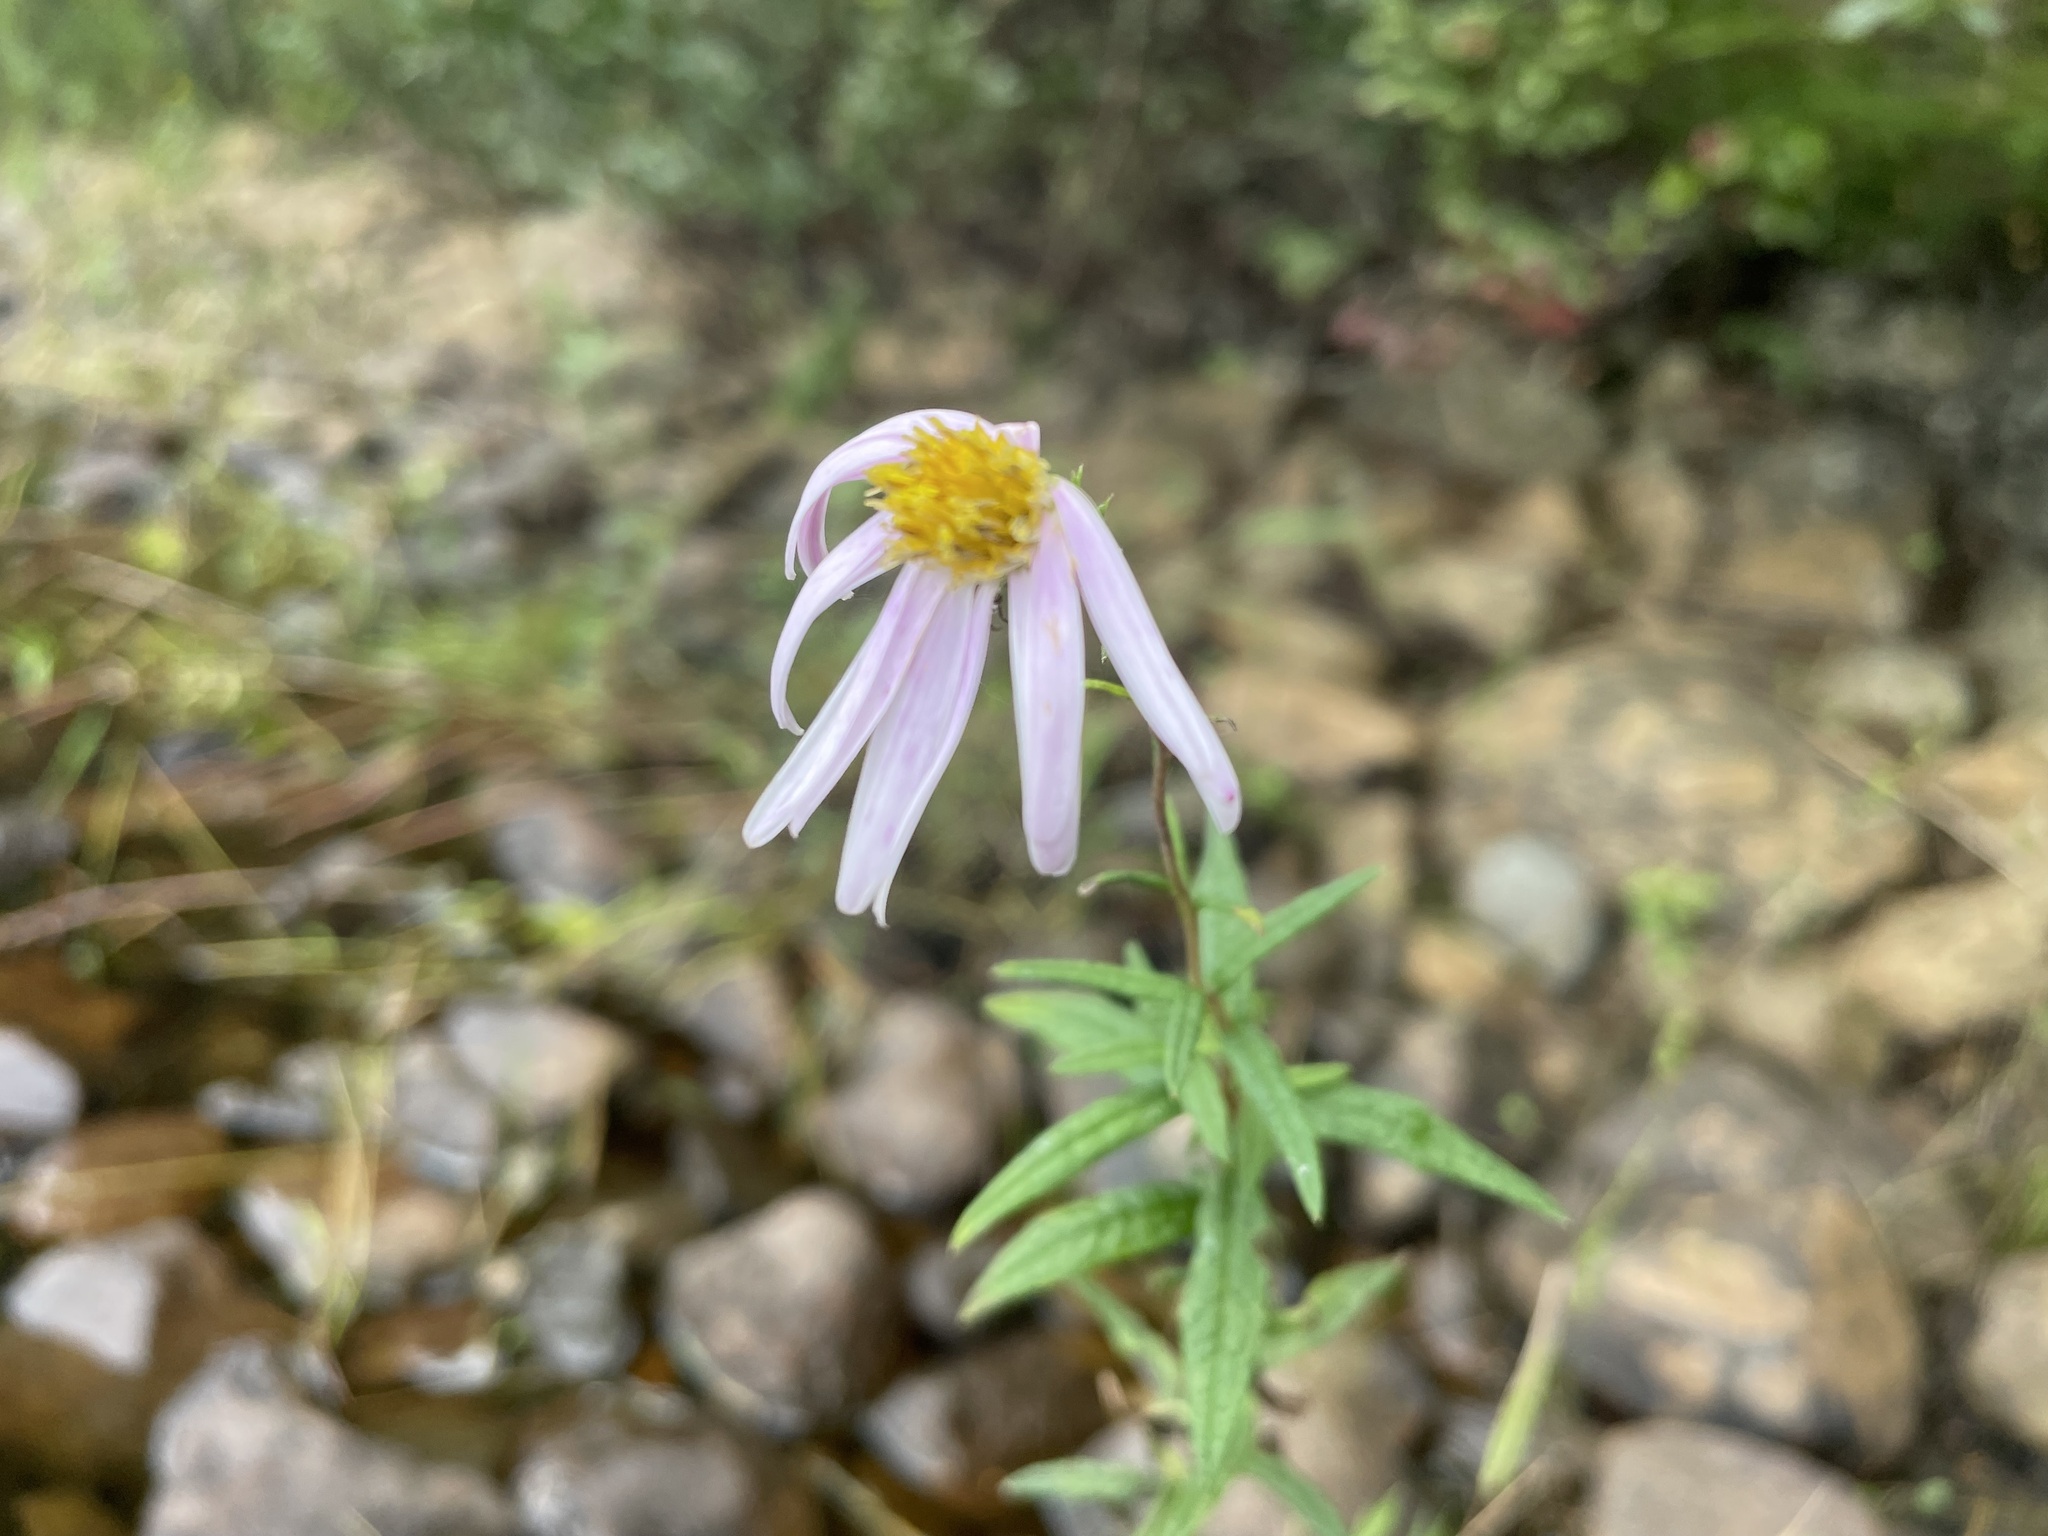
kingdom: Plantae
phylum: Tracheophyta
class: Magnoliopsida
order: Asterales
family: Asteraceae
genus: Oclemena
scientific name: Oclemena nemoralis
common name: Bog aster
